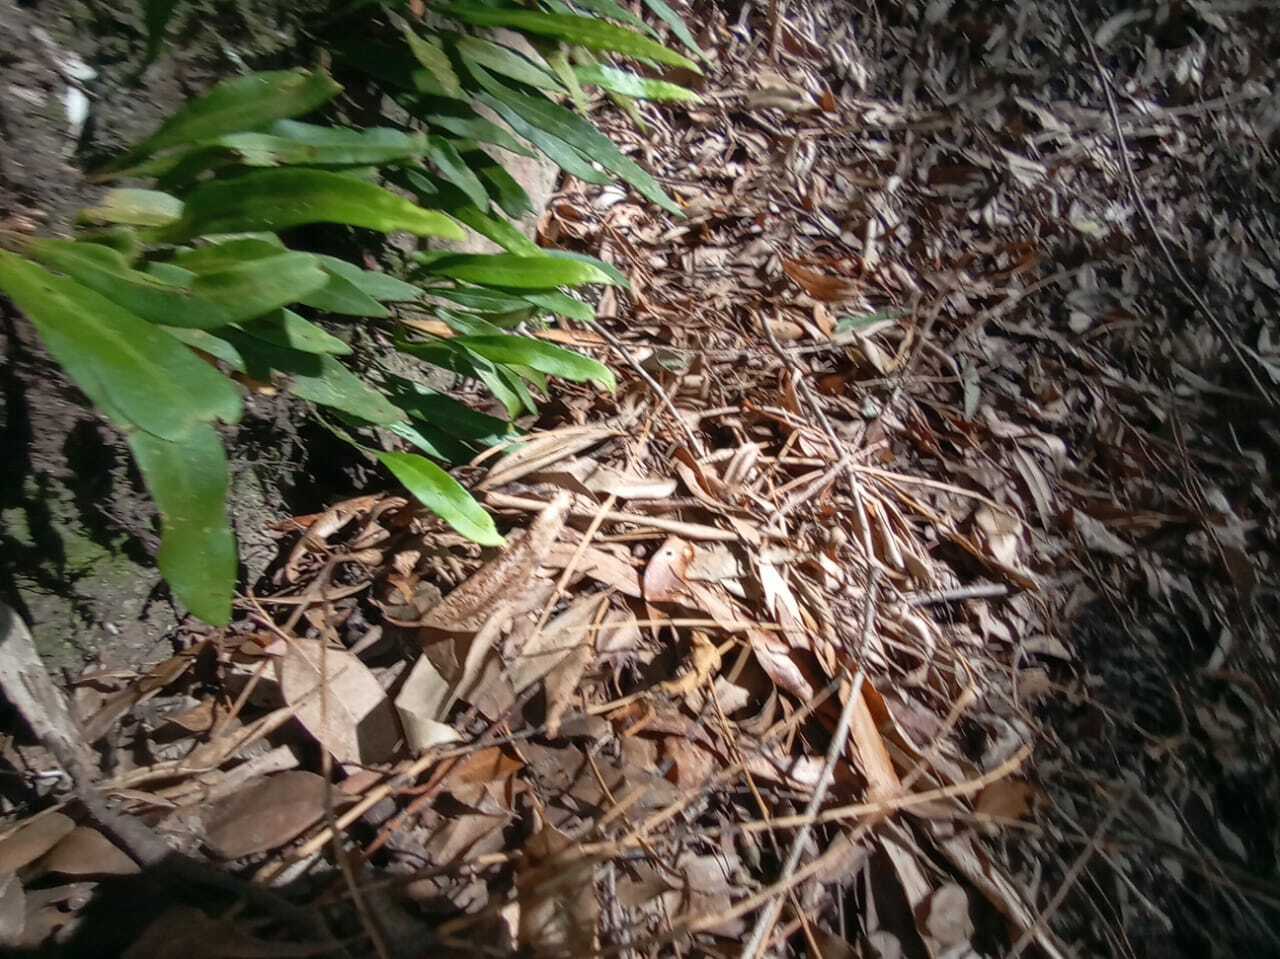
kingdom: Plantae
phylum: Tracheophyta
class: Polypodiopsida
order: Polypodiales
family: Polypodiaceae
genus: Pleopeltis
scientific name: Pleopeltis macrocarpa
